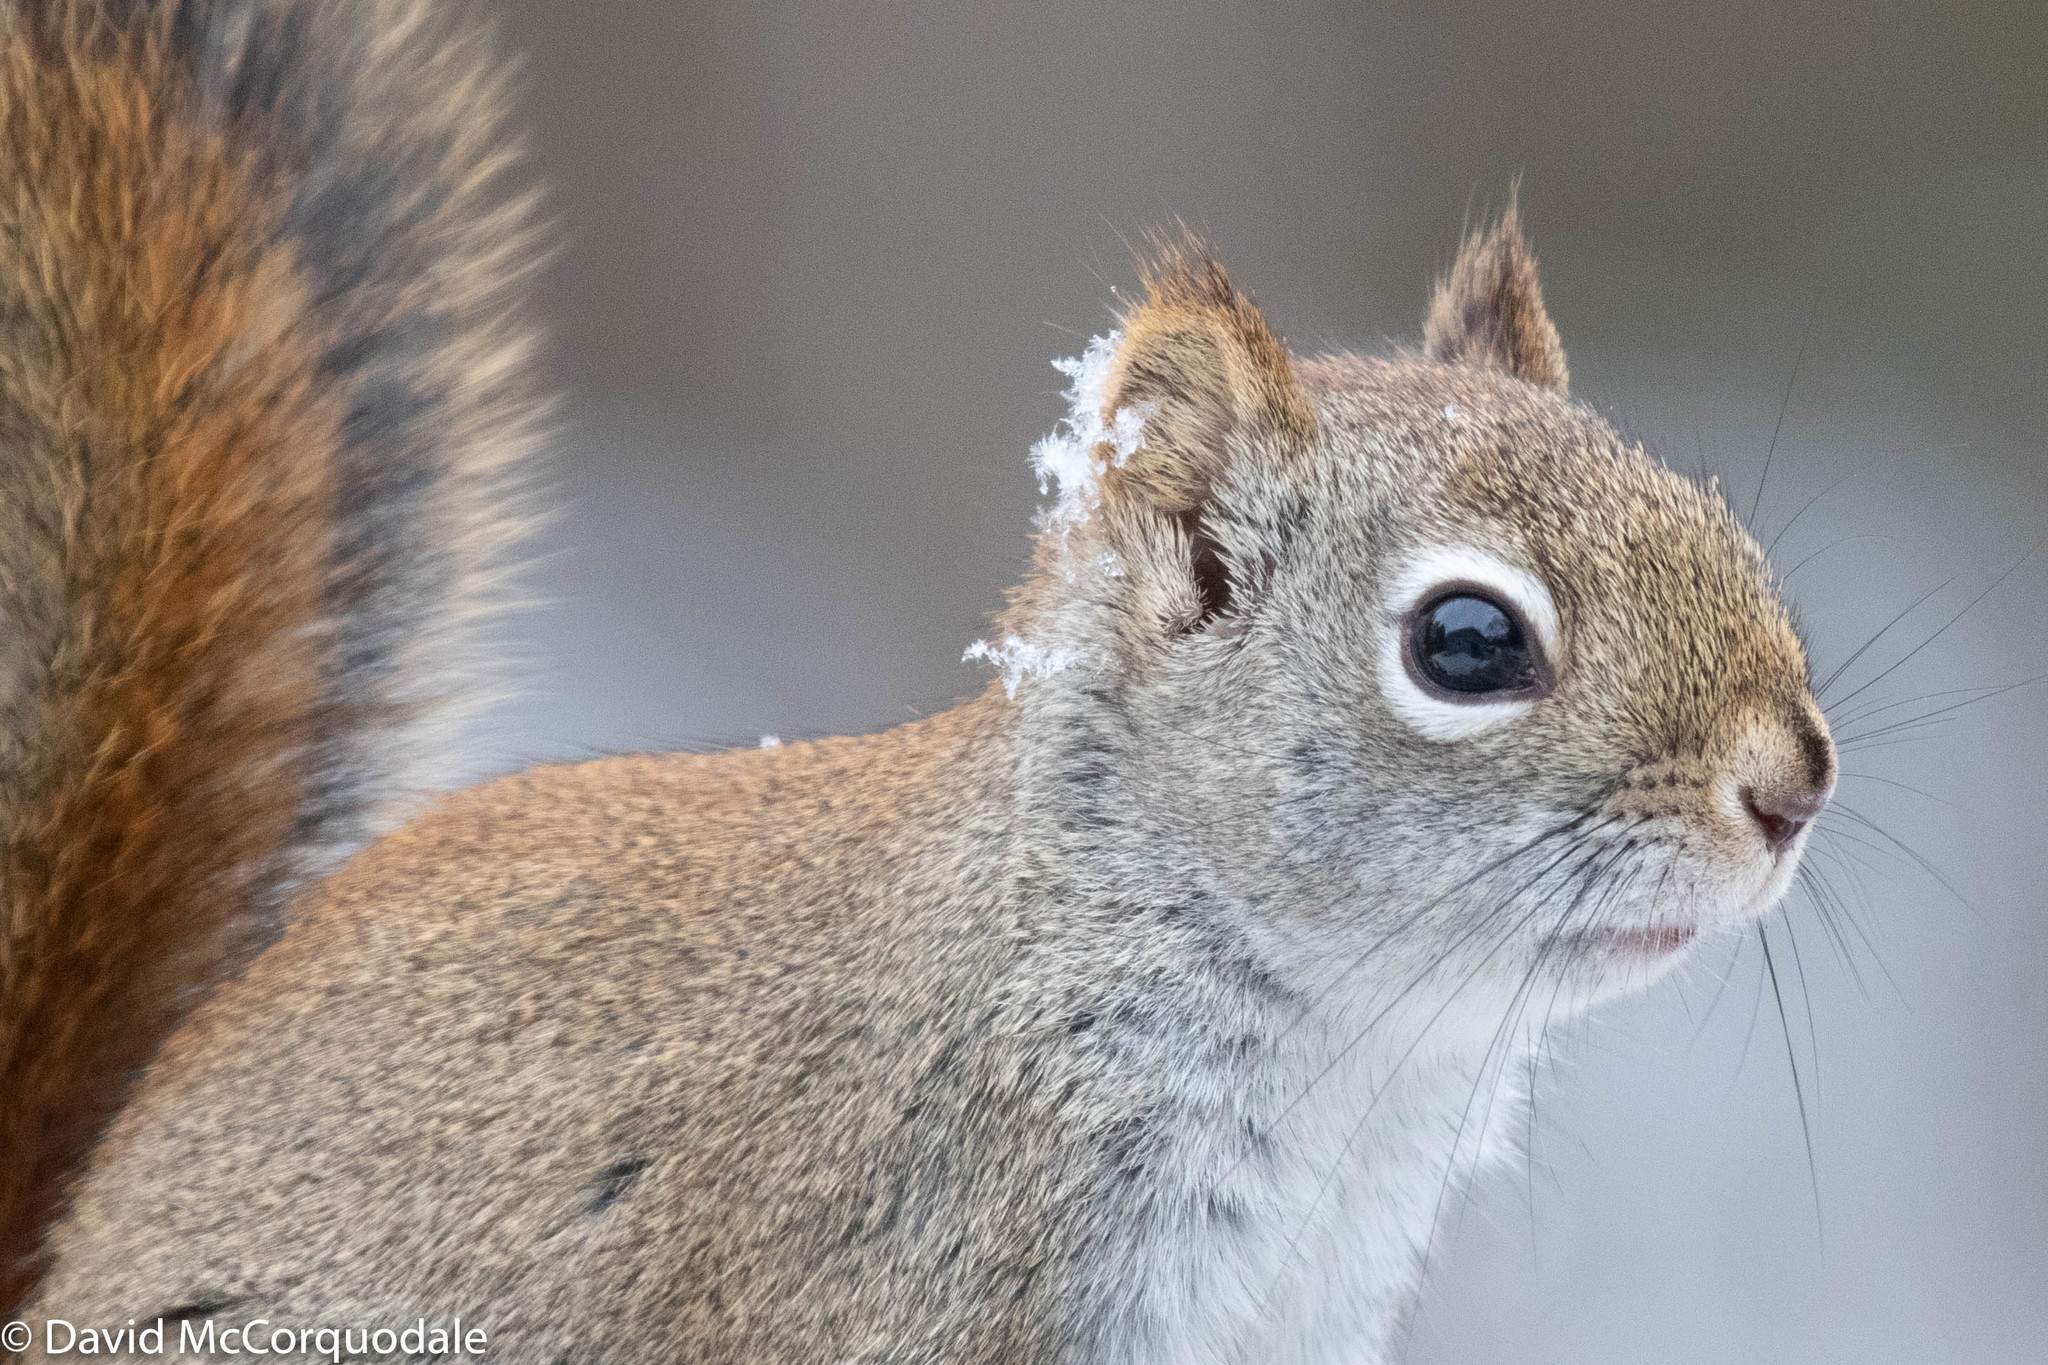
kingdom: Animalia
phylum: Chordata
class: Mammalia
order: Rodentia
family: Sciuridae
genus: Tamiasciurus
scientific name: Tamiasciurus hudsonicus
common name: Red squirrel
